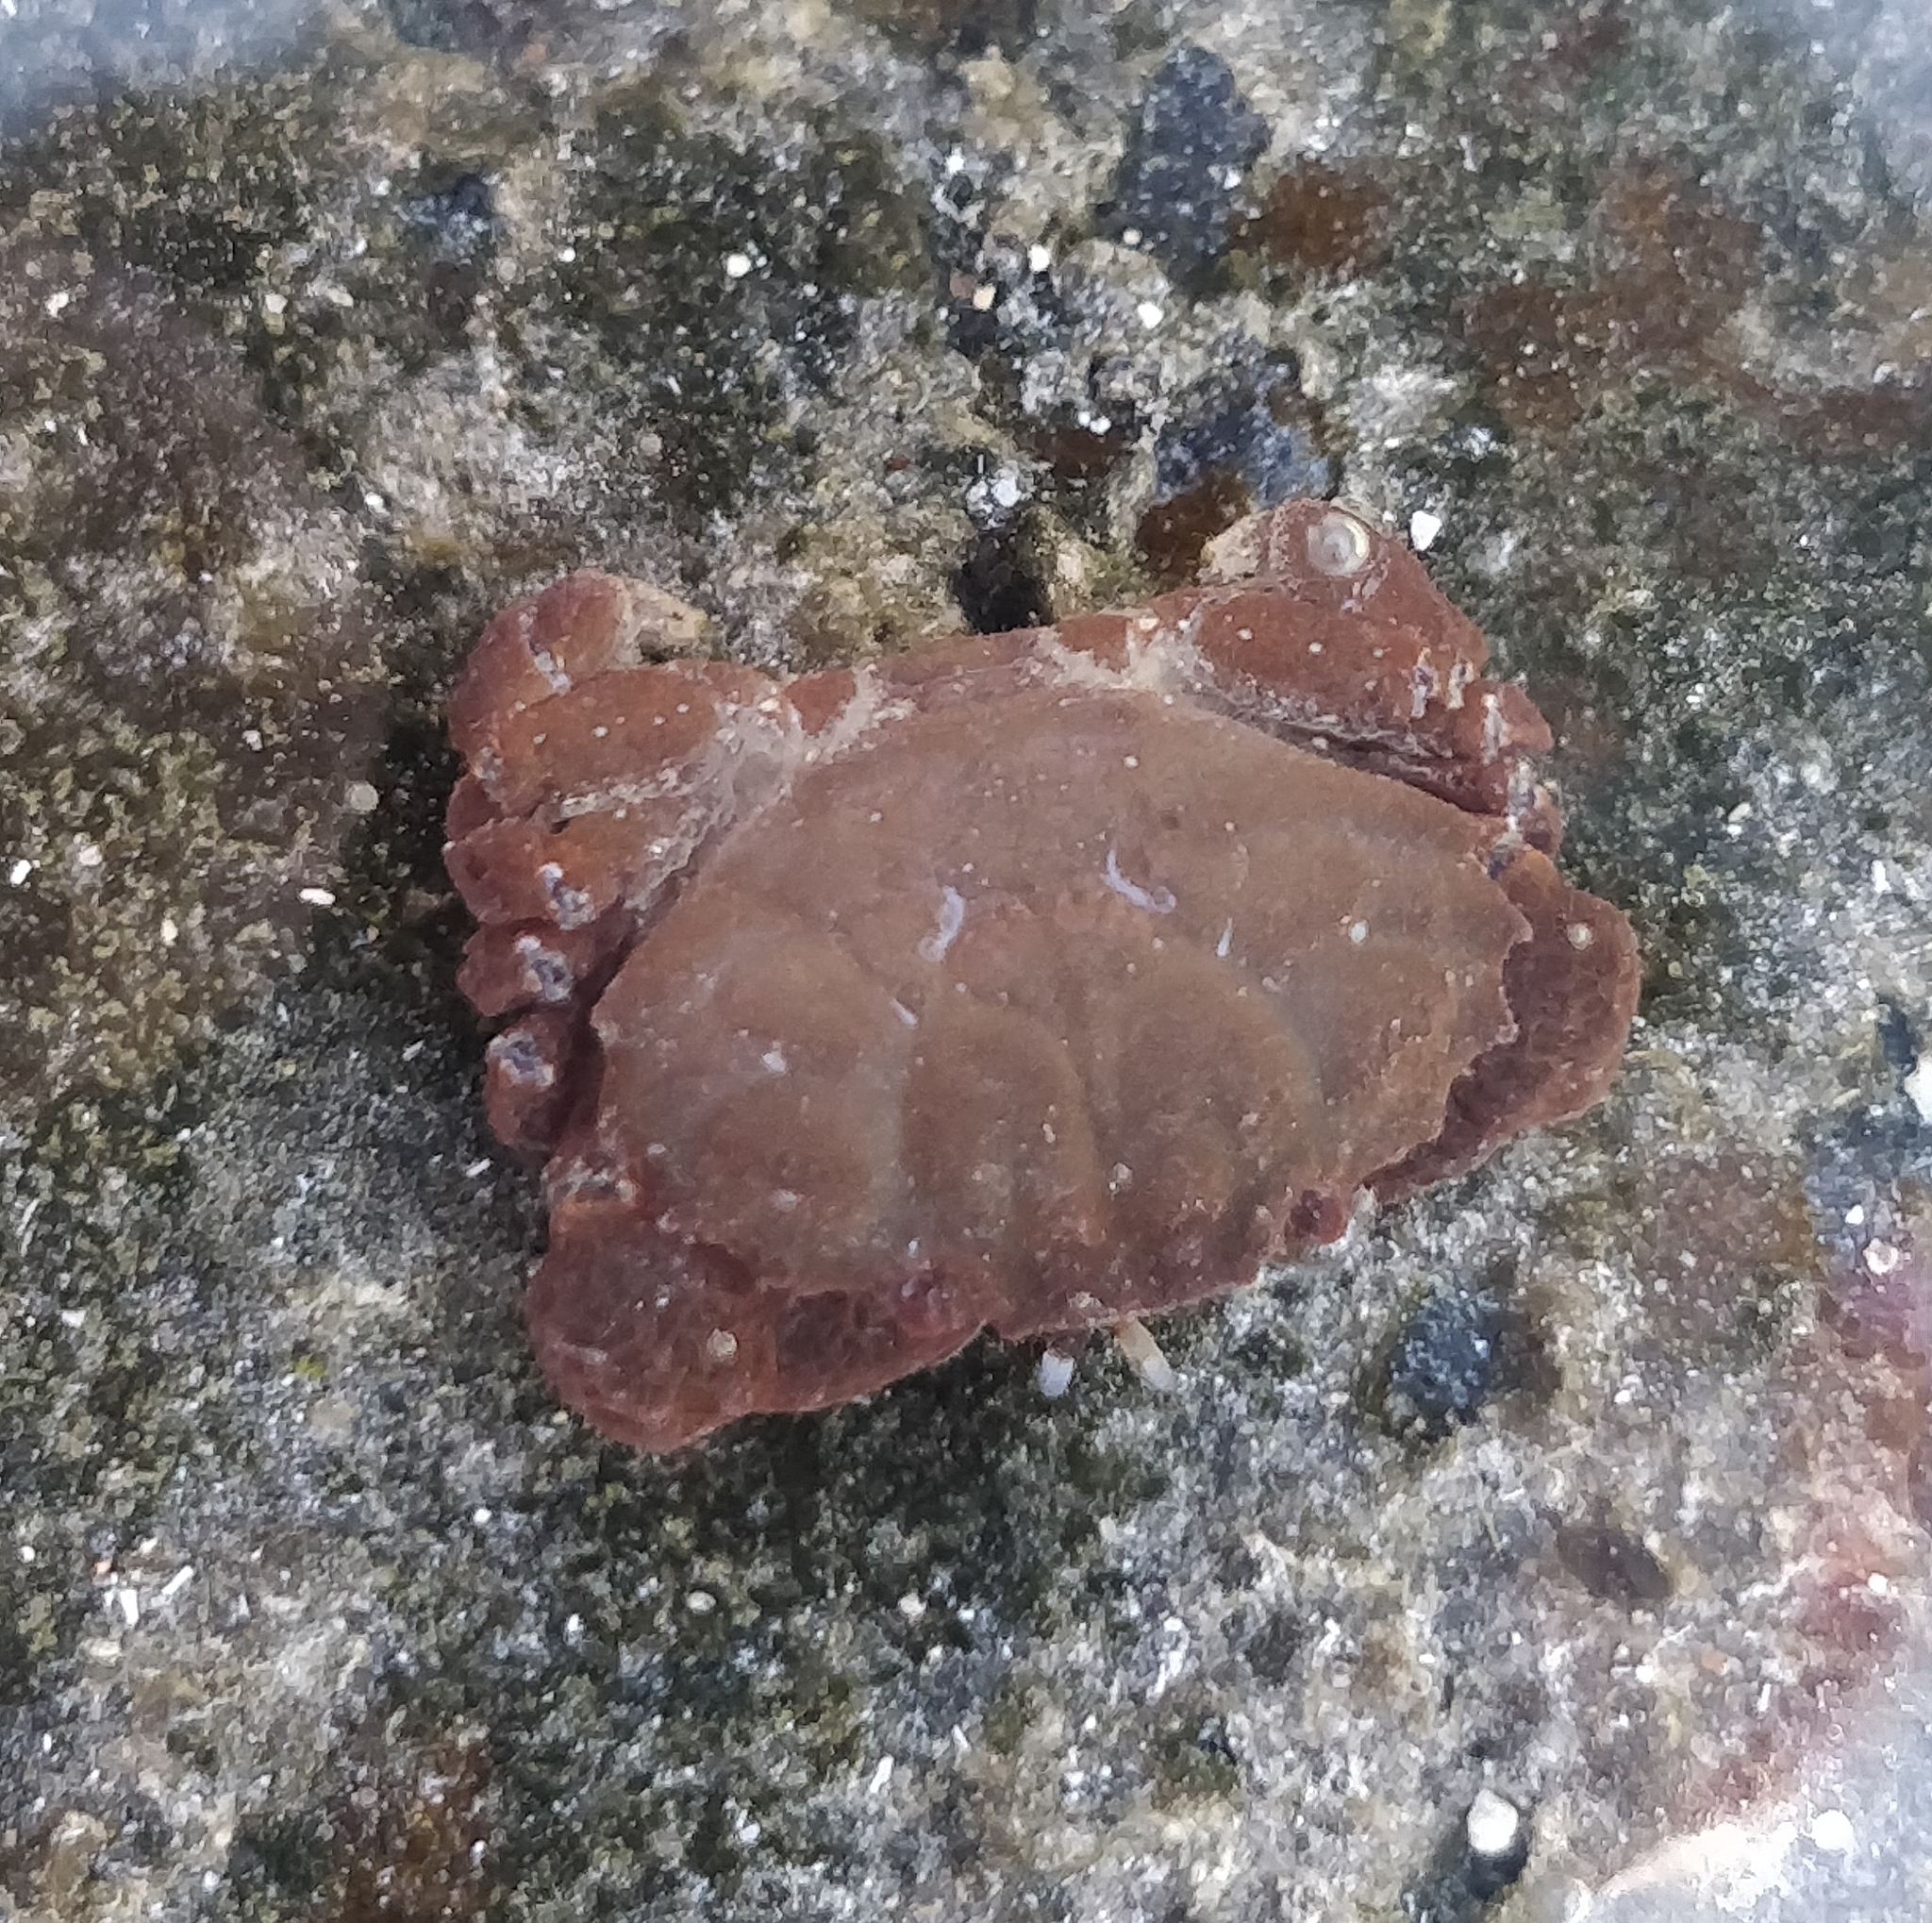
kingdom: Animalia
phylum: Arthropoda
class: Malacostraca
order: Decapoda
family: Xanthidae
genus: Xantho
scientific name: Xantho hydrophilus
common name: Montagu's crab
